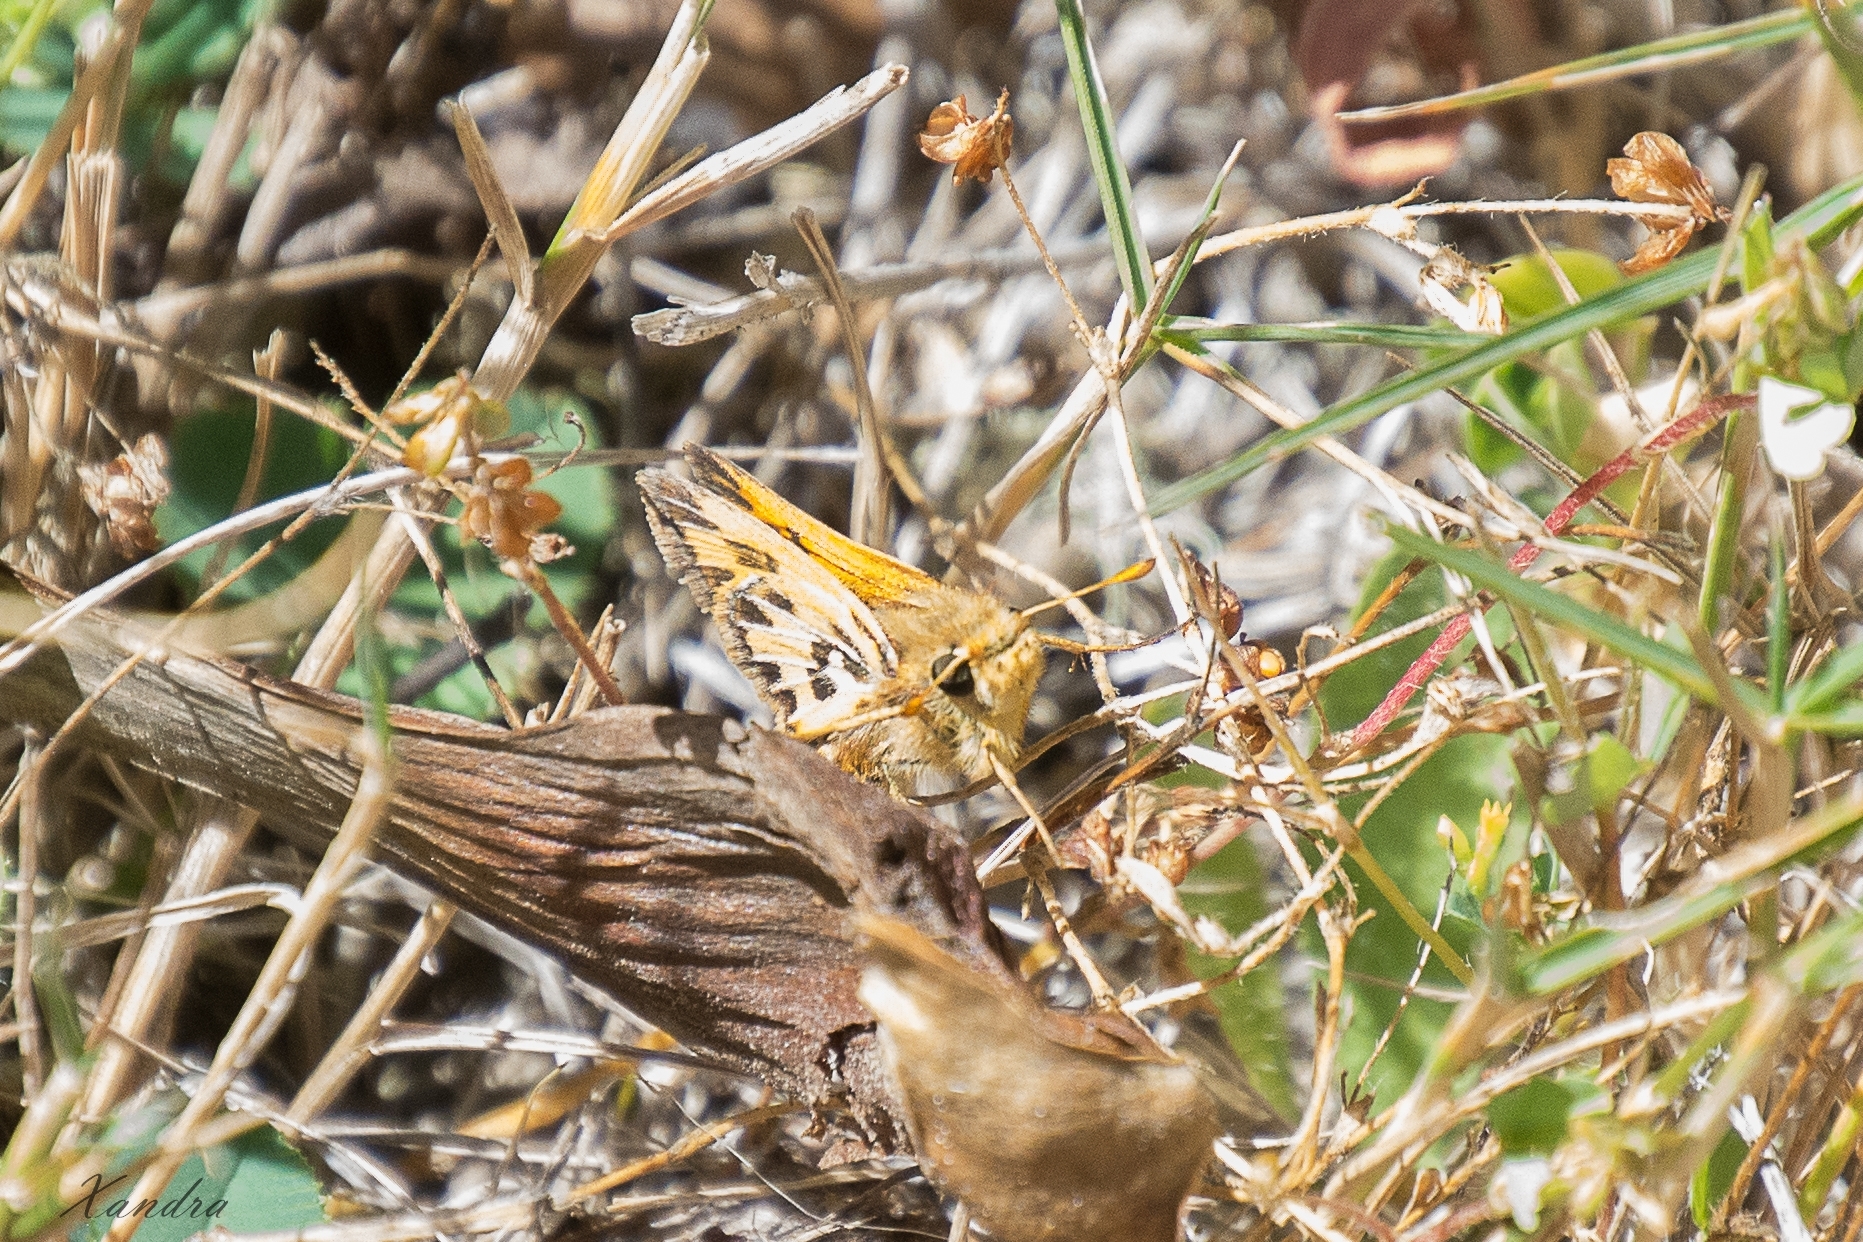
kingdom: Animalia
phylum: Arthropoda
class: Insecta
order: Lepidoptera
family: Hesperiidae
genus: Hylephila
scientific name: Hylephila fasciolata
